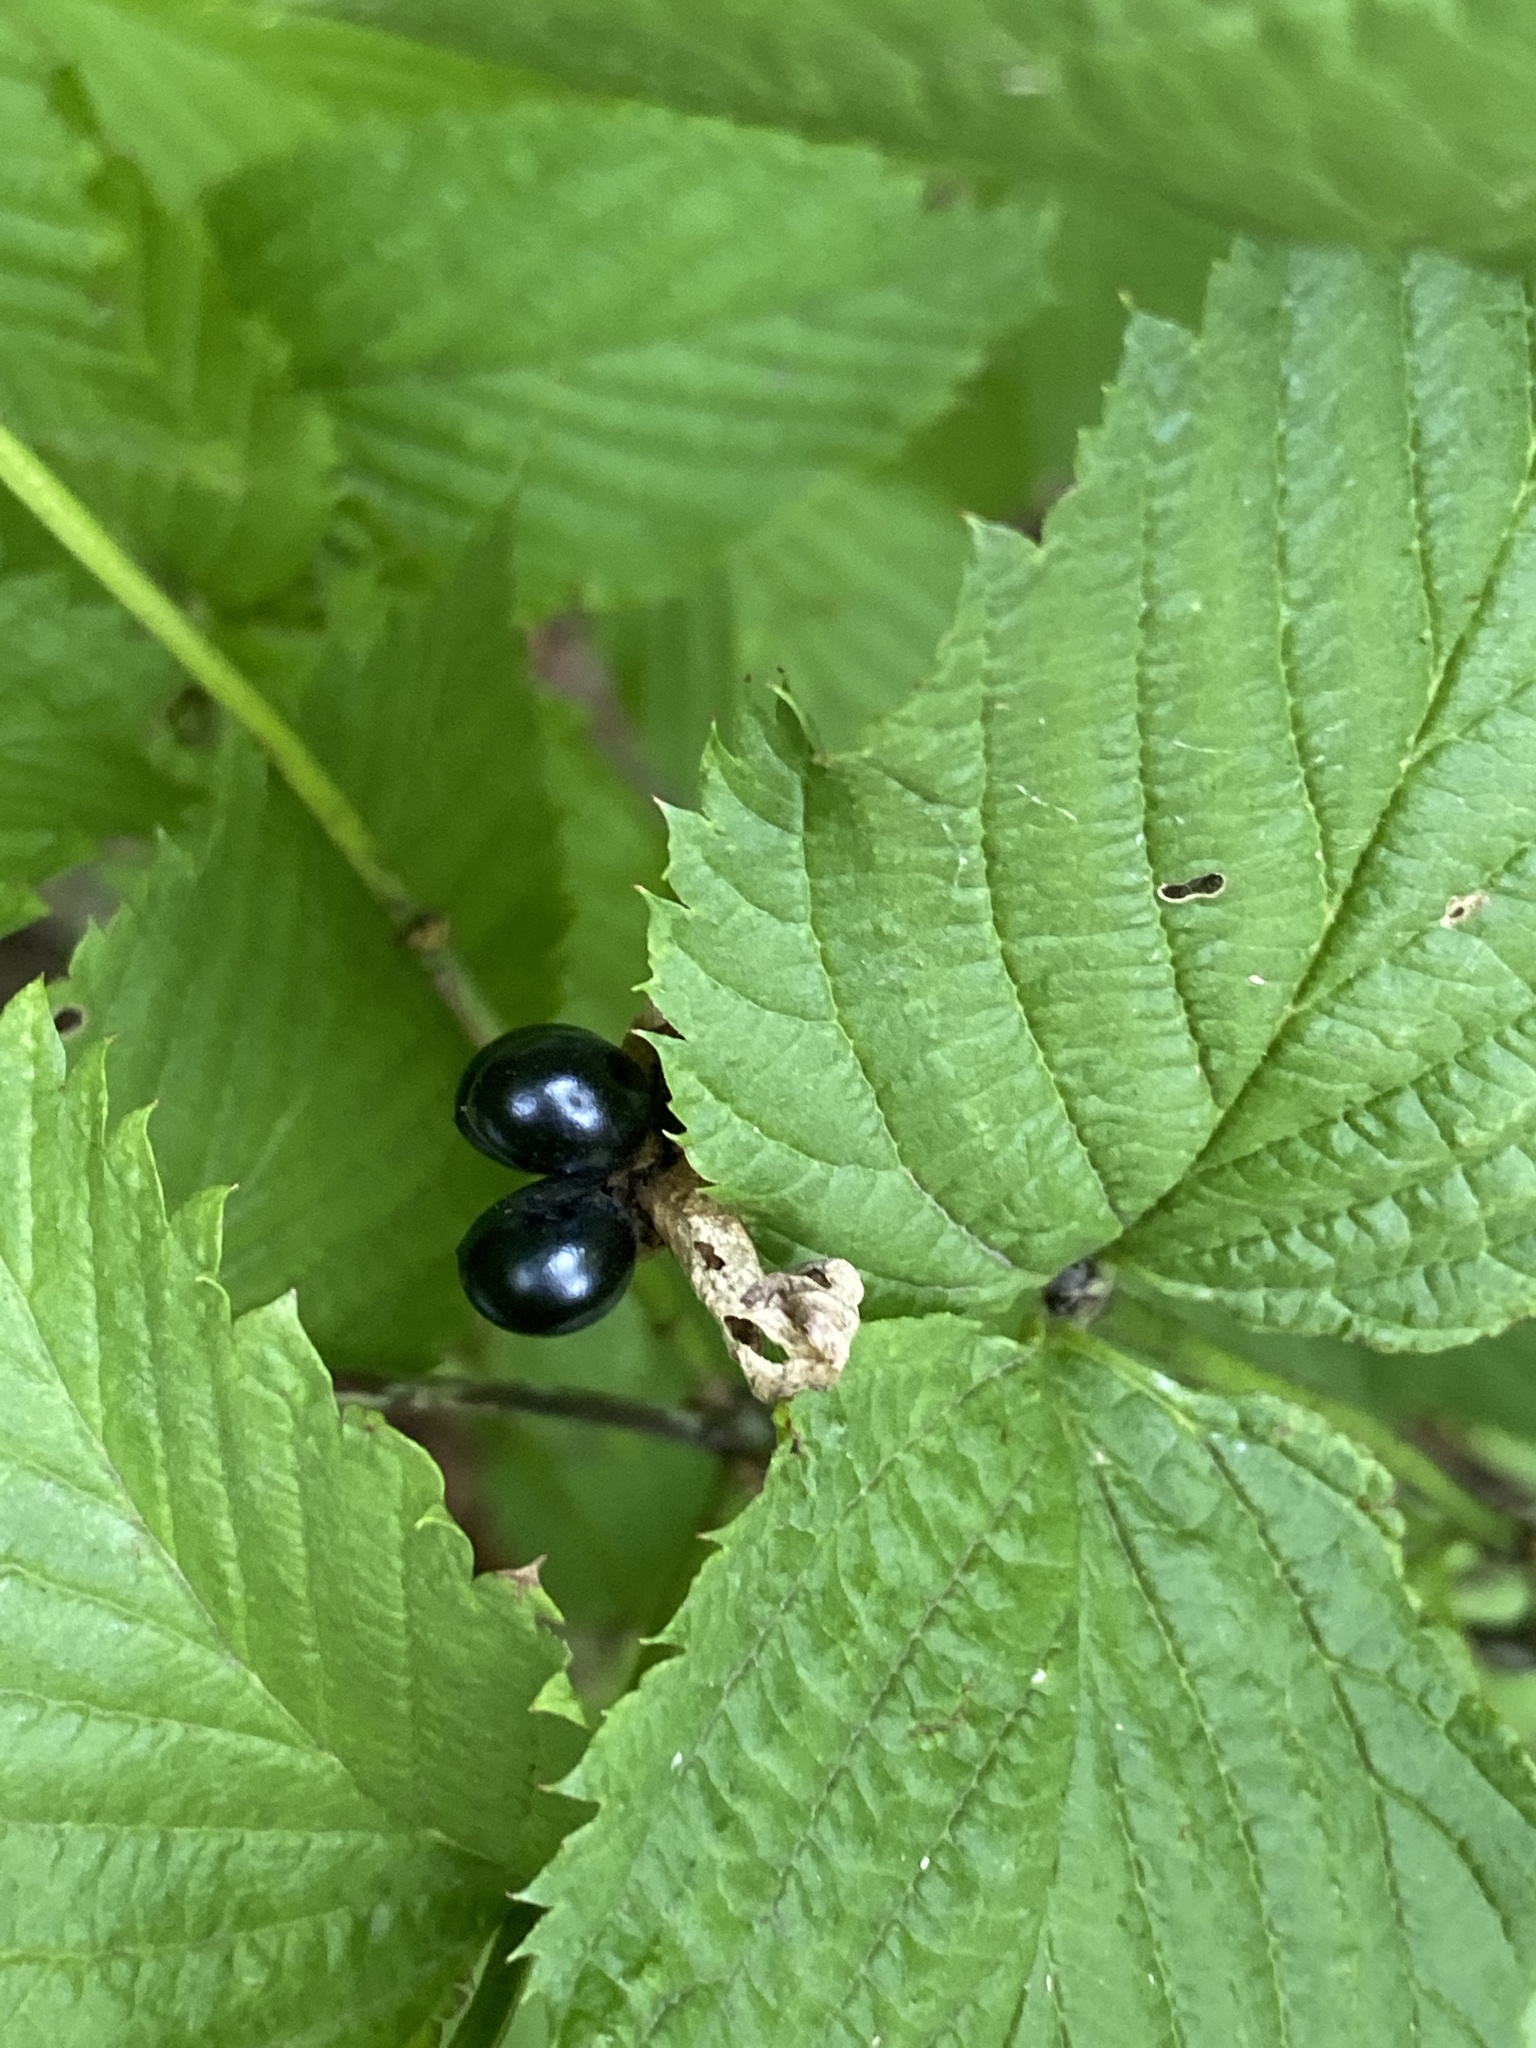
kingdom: Plantae
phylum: Tracheophyta
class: Magnoliopsida
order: Rosales
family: Rosaceae
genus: Rhodotypos
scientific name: Rhodotypos scandens
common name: Jetbead
